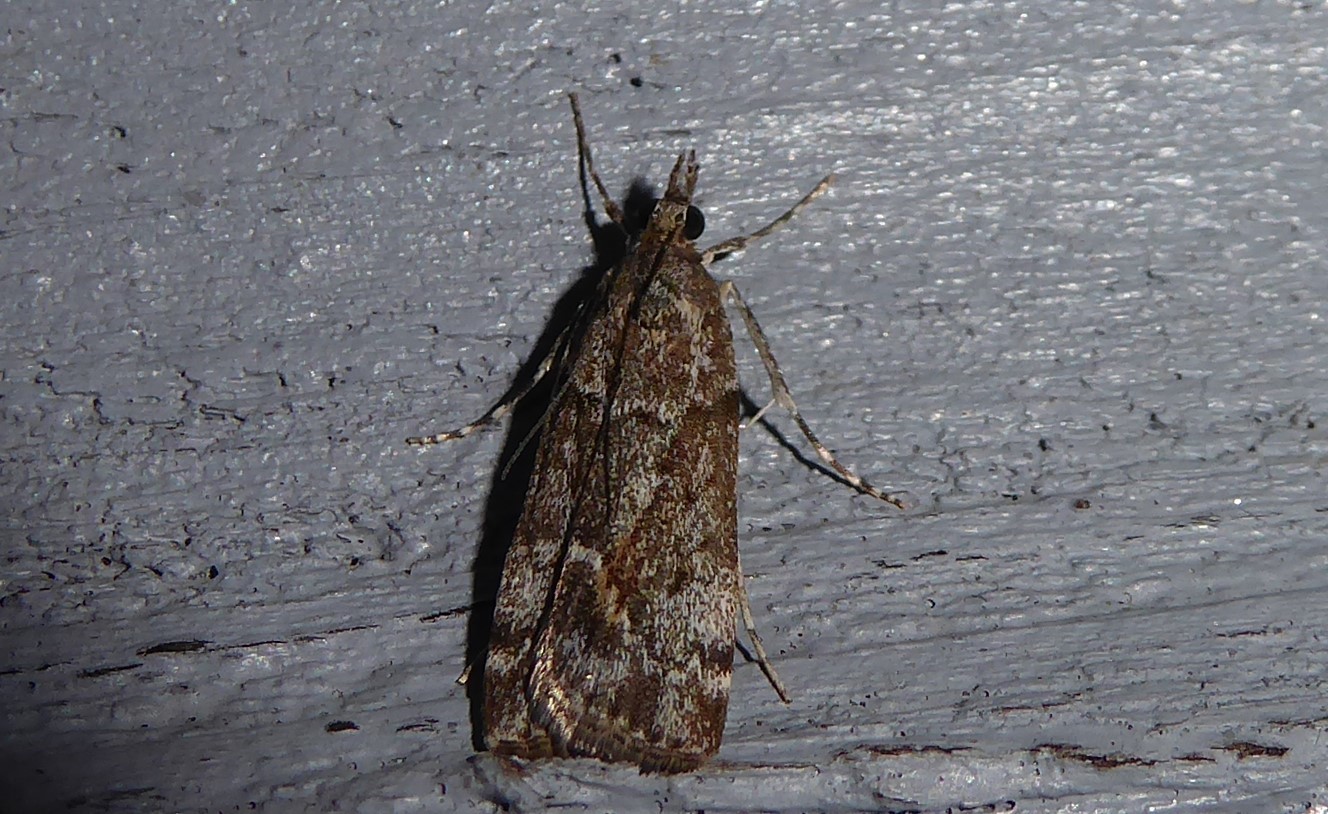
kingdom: Animalia
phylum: Arthropoda
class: Insecta
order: Lepidoptera
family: Crambidae
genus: Eudonia
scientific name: Eudonia submarginalis
